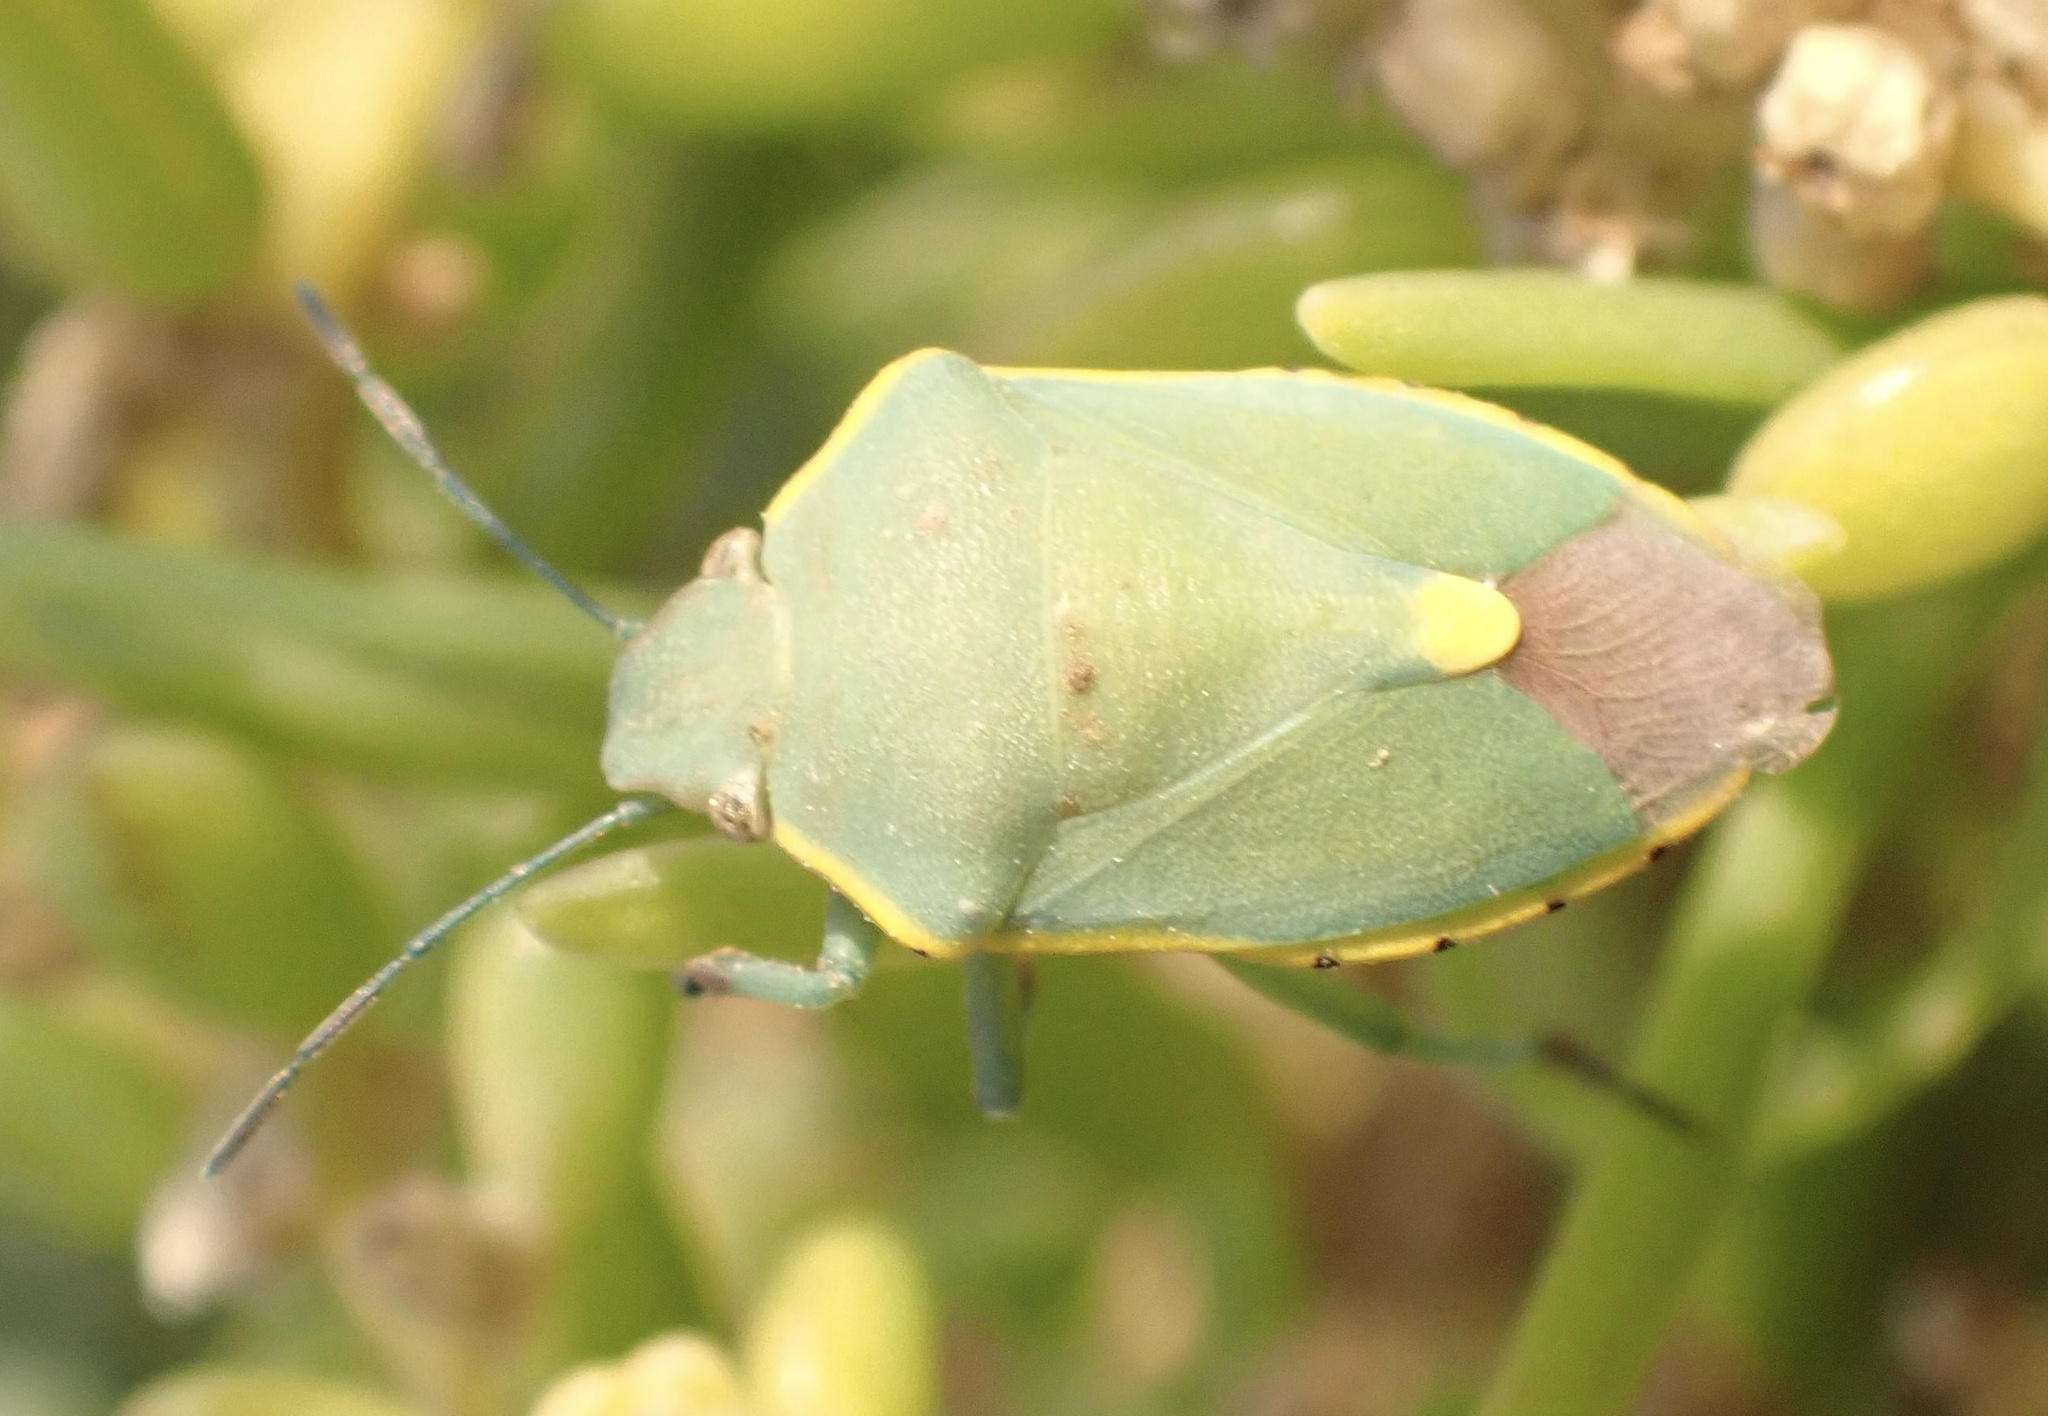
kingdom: Animalia
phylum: Arthropoda
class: Insecta
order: Hemiptera
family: Pentatomidae
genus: Brachynema
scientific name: Brachynema cinctum
